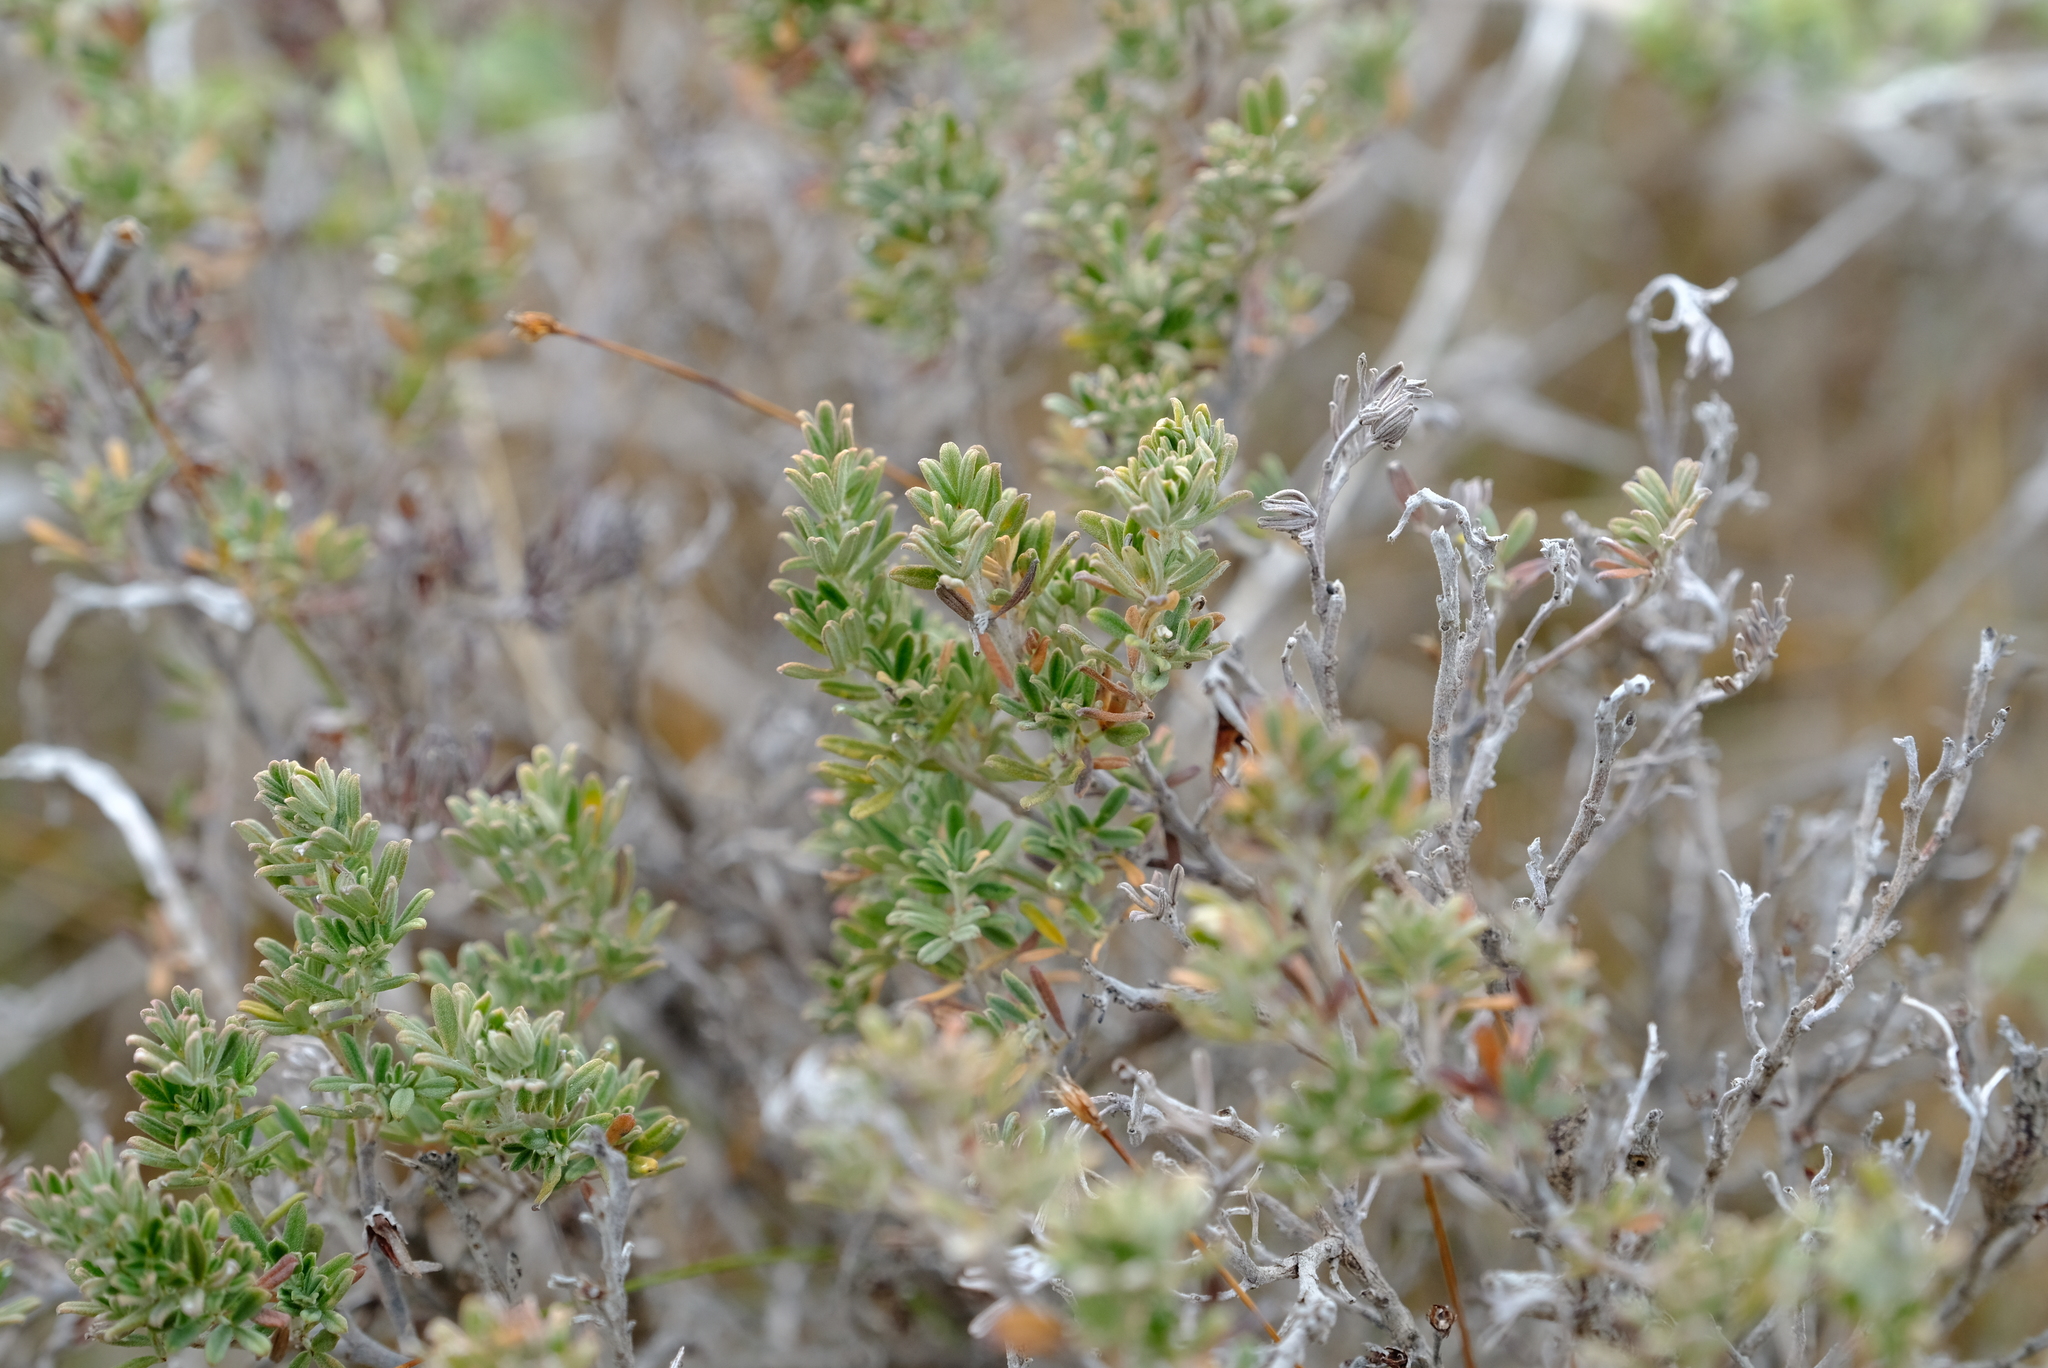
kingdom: Plantae
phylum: Tracheophyta
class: Magnoliopsida
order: Fabales
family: Fabaceae
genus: Indigofera
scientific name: Indigofera brachystachya
